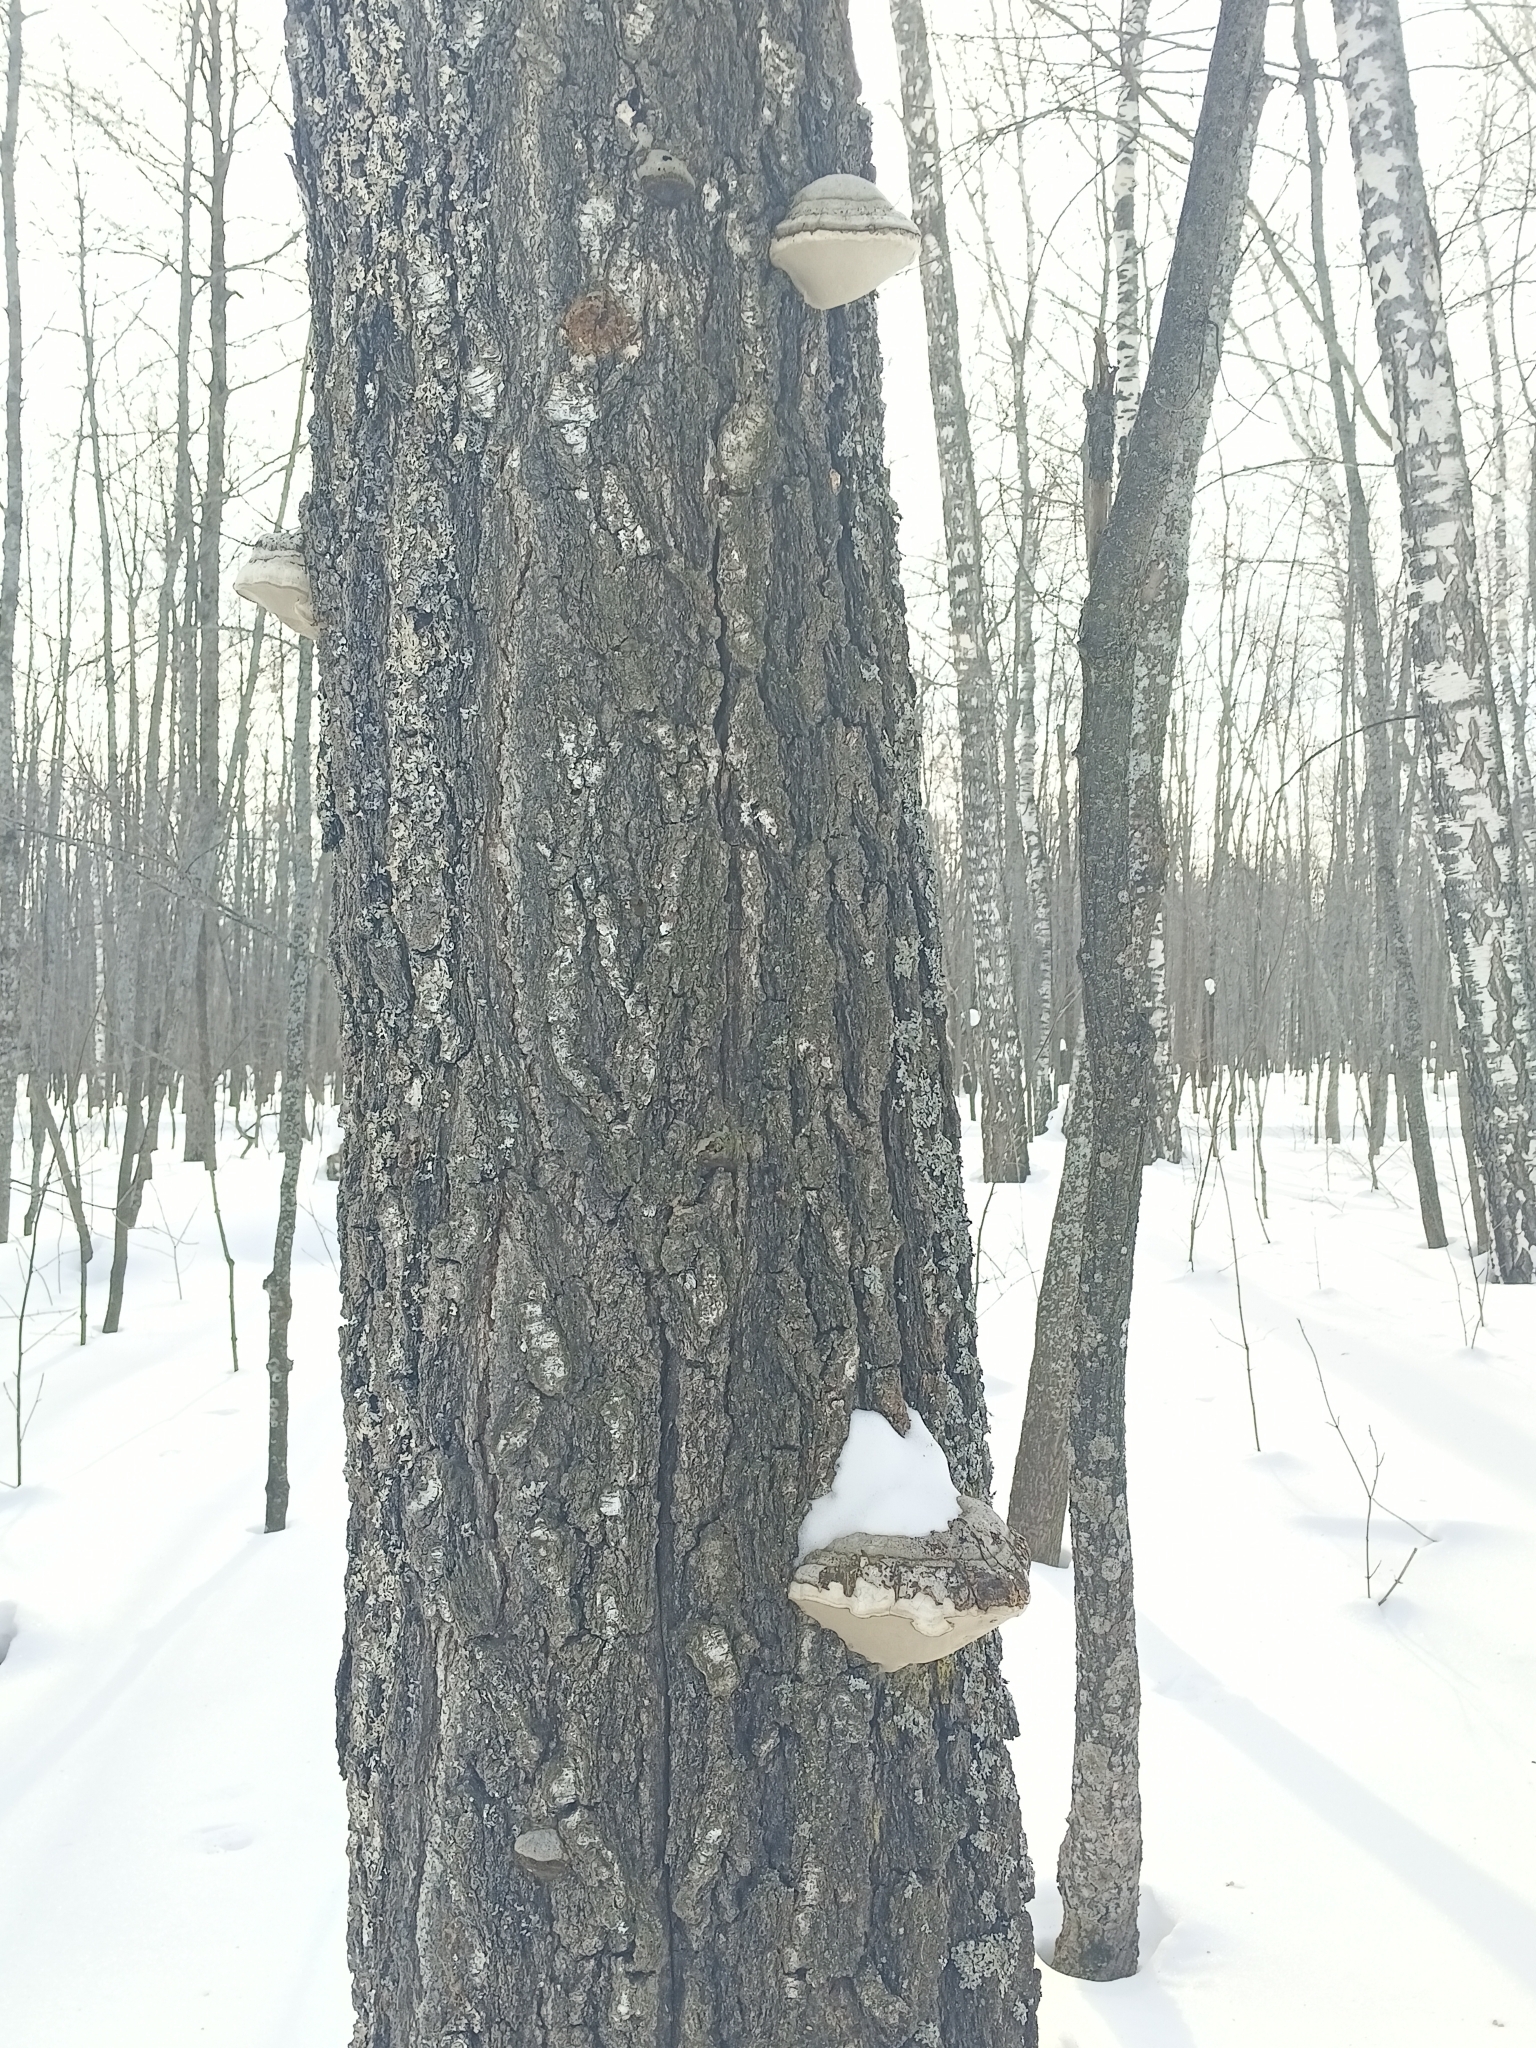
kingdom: Fungi
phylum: Basidiomycota
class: Agaricomycetes
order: Polyporales
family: Polyporaceae
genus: Fomes
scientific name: Fomes fomentarius
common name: Hoof fungus
